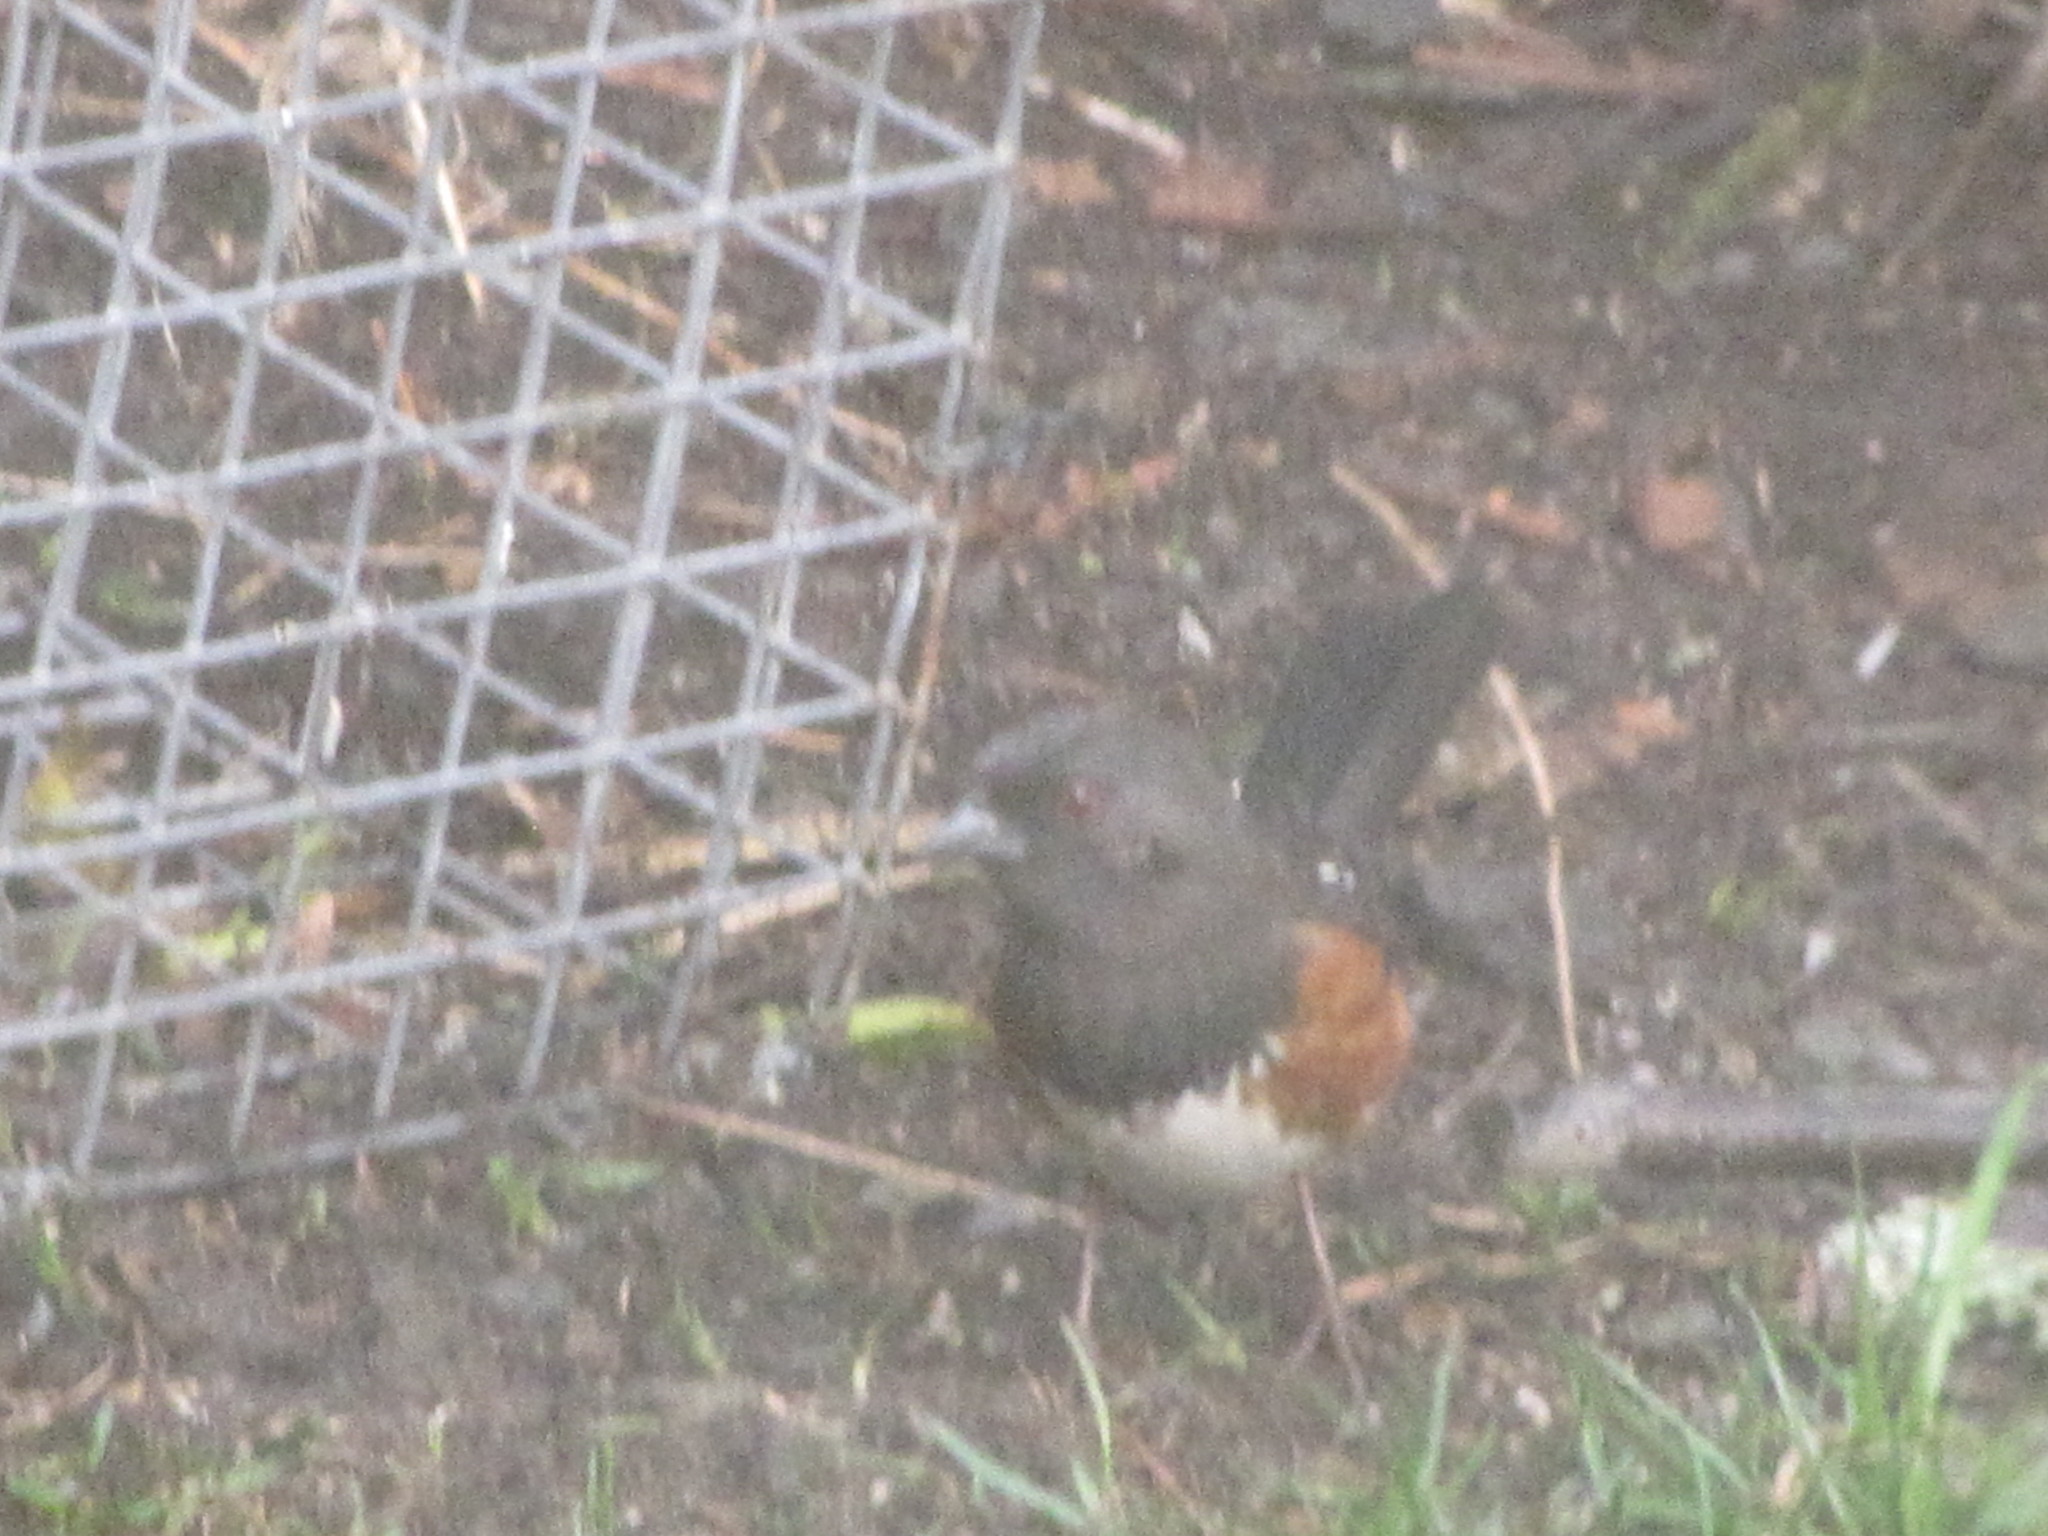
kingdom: Animalia
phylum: Chordata
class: Aves
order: Passeriformes
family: Passerellidae
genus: Pipilo
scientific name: Pipilo maculatus
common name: Spotted towhee
